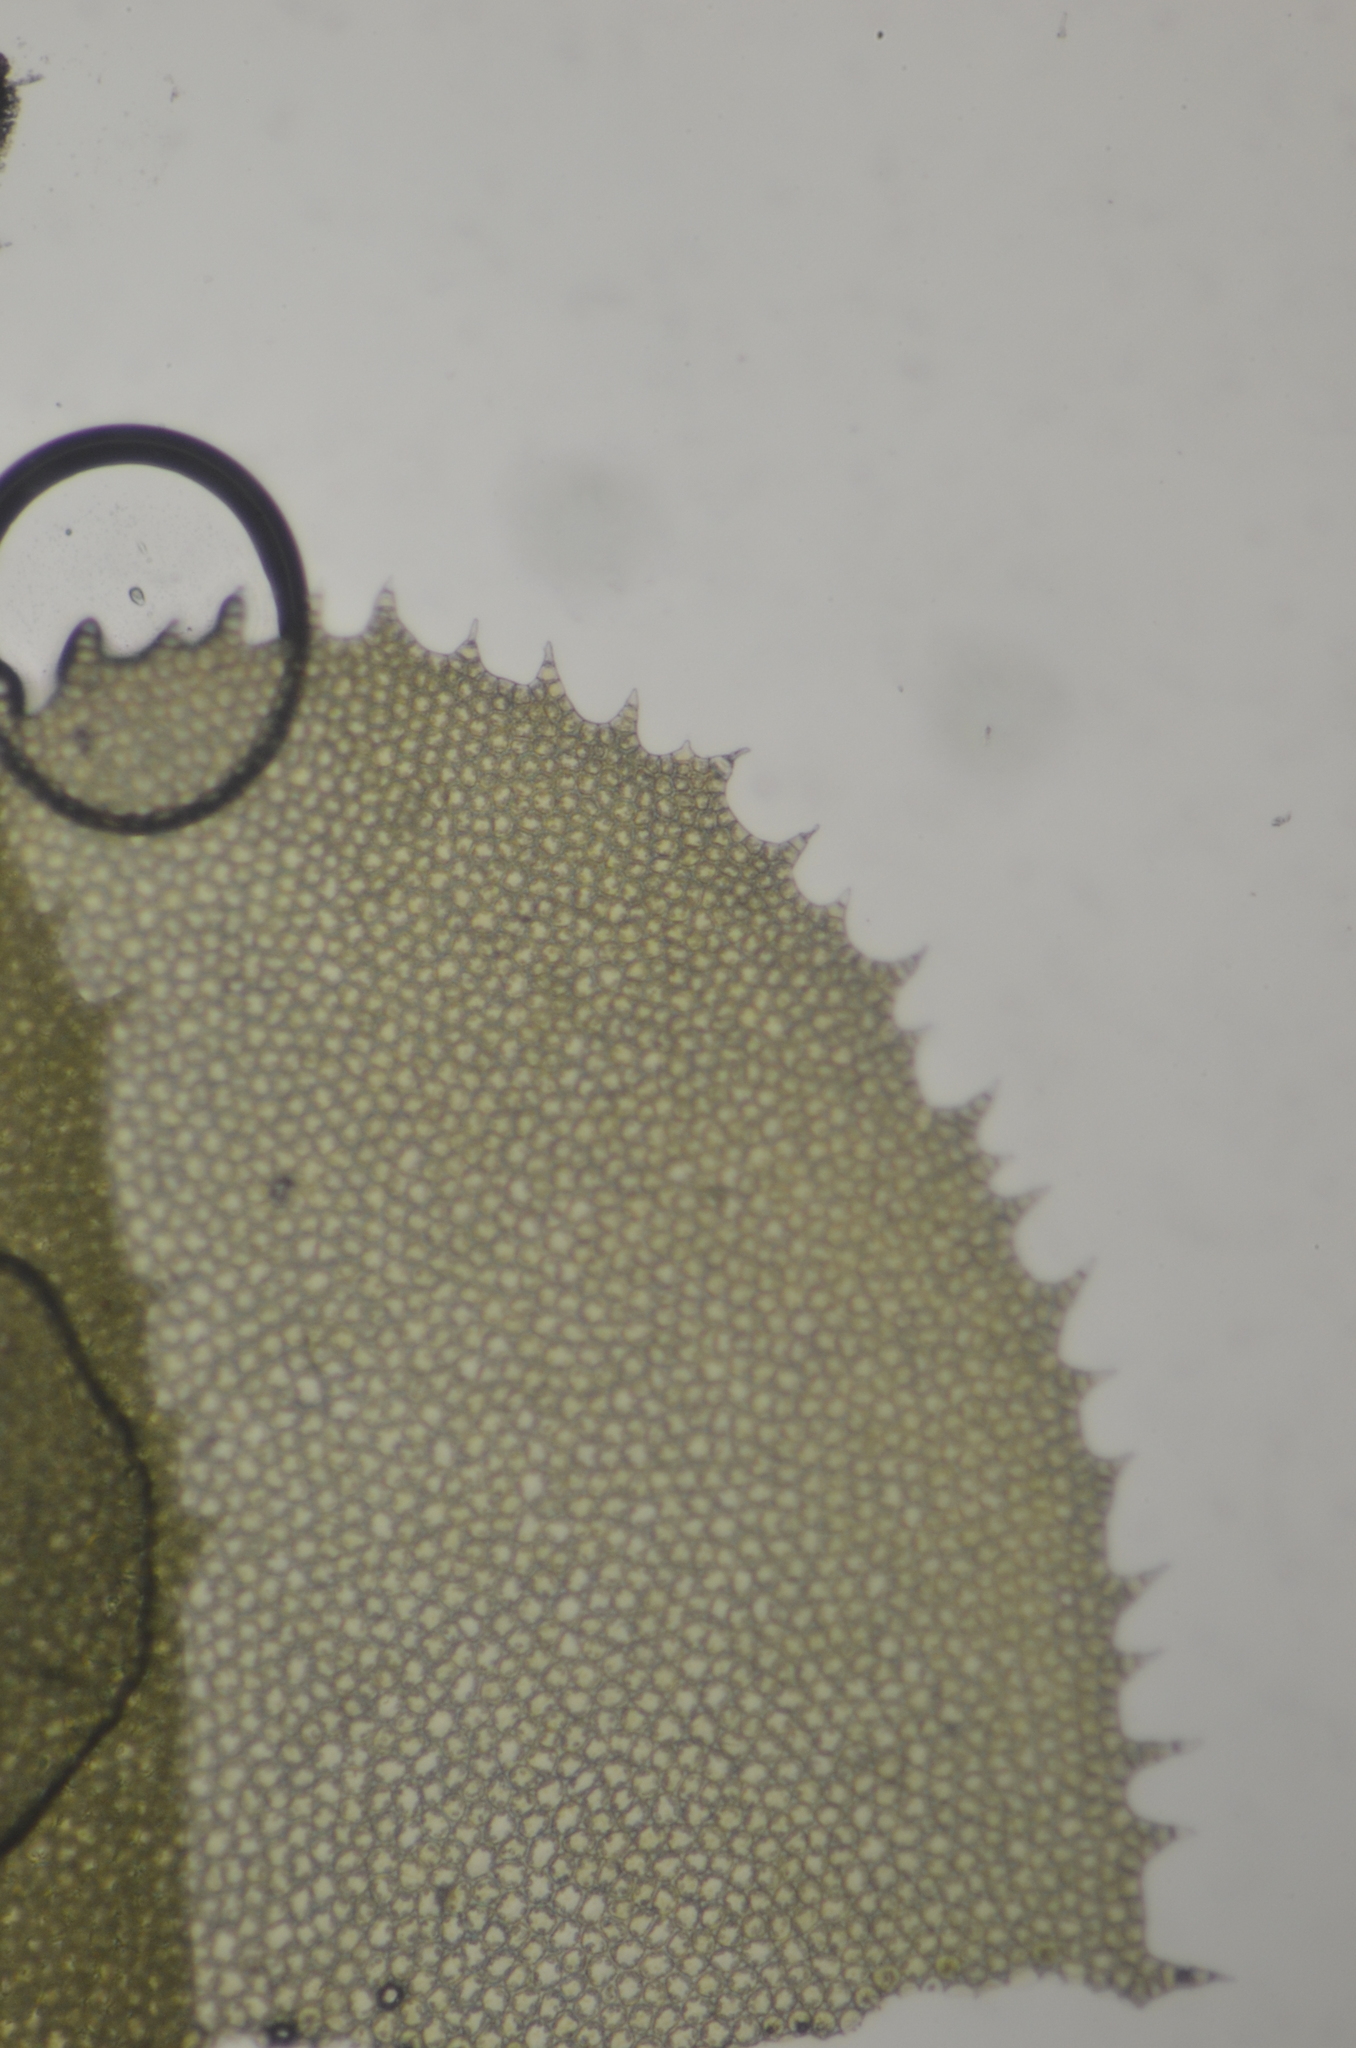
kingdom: Plantae
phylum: Marchantiophyta
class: Jungermanniopsida
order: Jungermanniales
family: Plagiochilaceae
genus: Plagiochila
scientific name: Plagiochila porelloides
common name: Lesser featherwort
